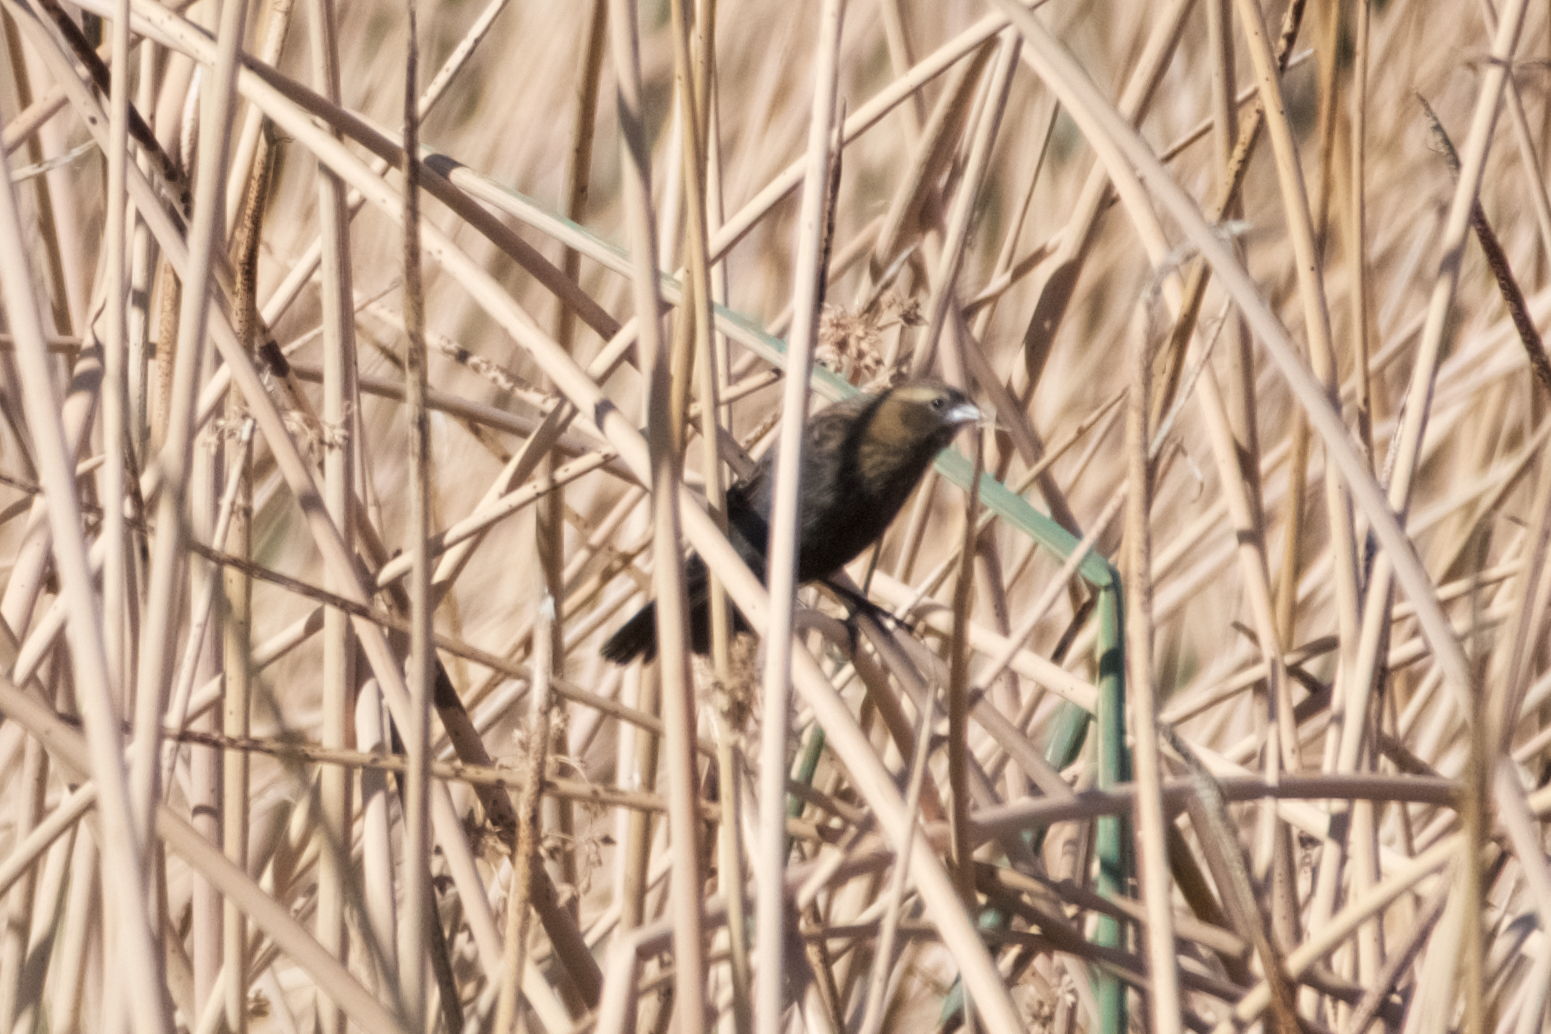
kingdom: Animalia
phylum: Chordata
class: Aves
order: Passeriformes
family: Icteridae
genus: Agelaius
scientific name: Agelaius phoeniceus
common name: Red-winged blackbird
